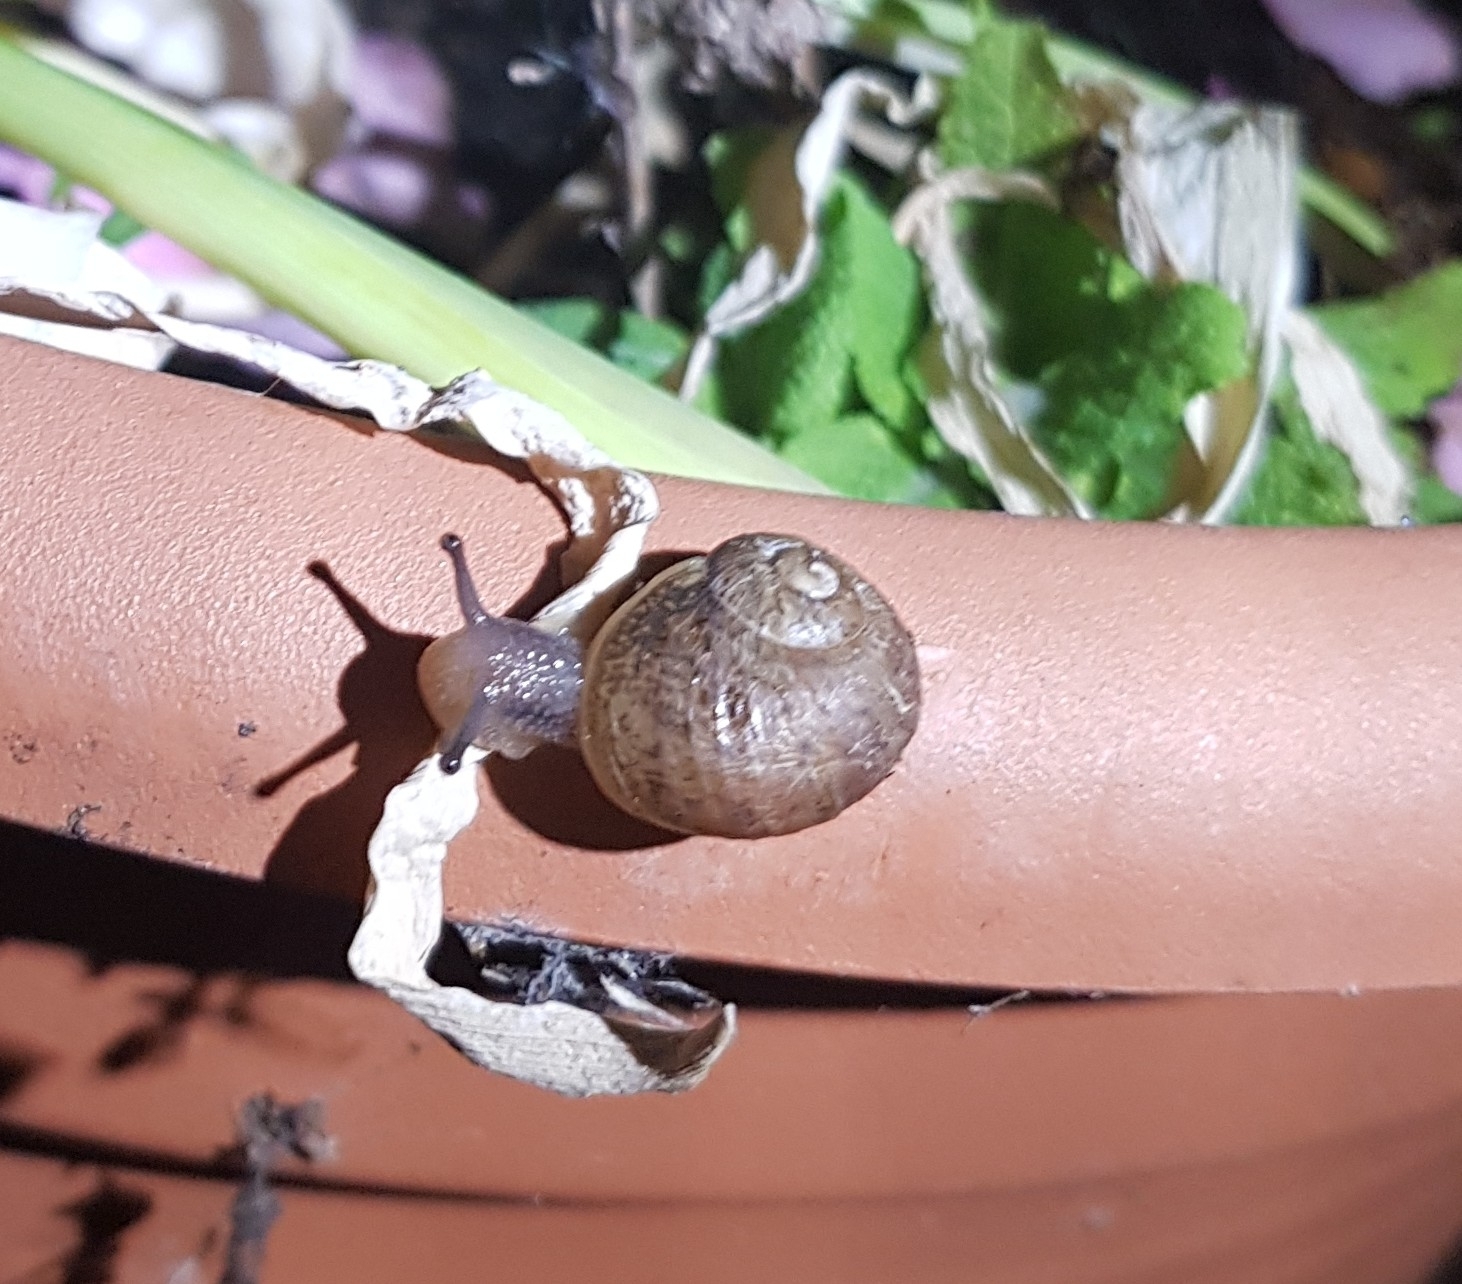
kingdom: Animalia
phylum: Mollusca
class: Gastropoda
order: Stylommatophora
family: Helicidae
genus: Cornu
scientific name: Cornu aspersum
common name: Brown garden snail
